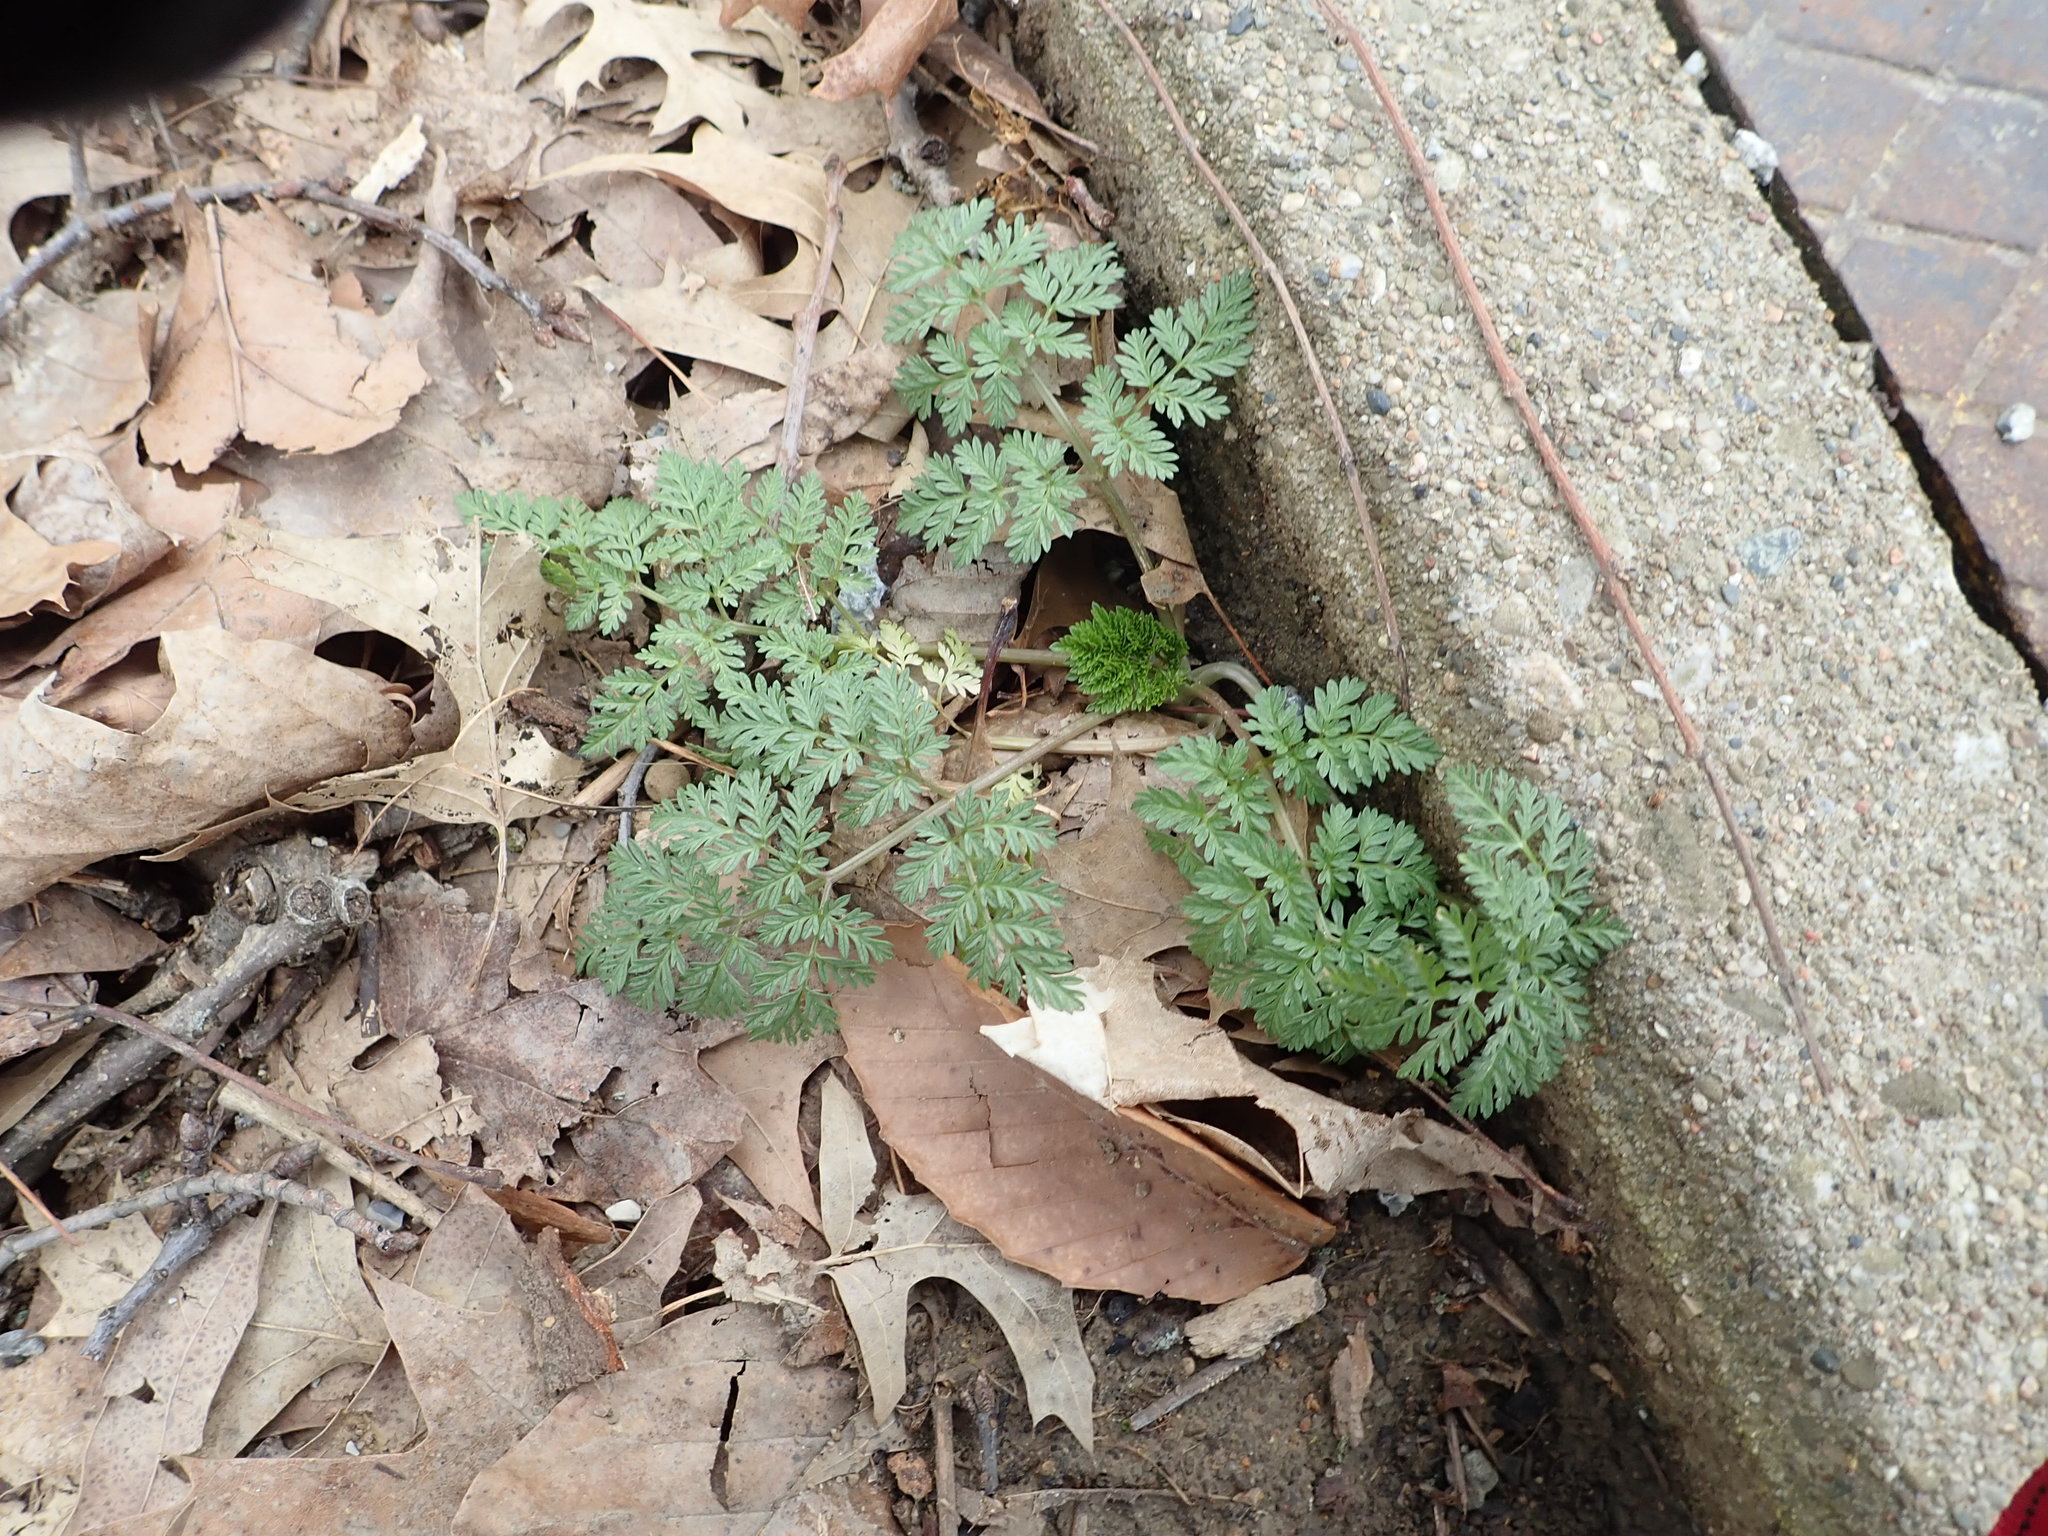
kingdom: Plantae
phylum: Tracheophyta
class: Magnoliopsida
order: Apiales
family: Apiaceae
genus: Conium
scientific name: Conium maculatum
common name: Hemlock
